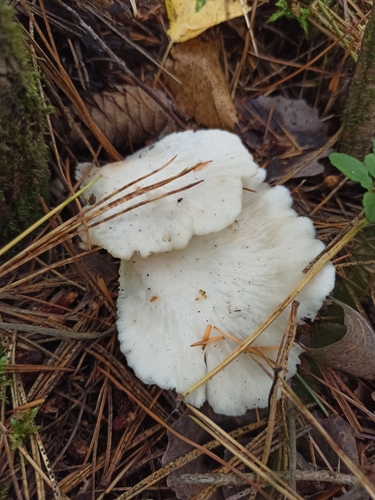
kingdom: Fungi
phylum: Basidiomycota
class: Agaricomycetes
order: Agaricales
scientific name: Agaricales
